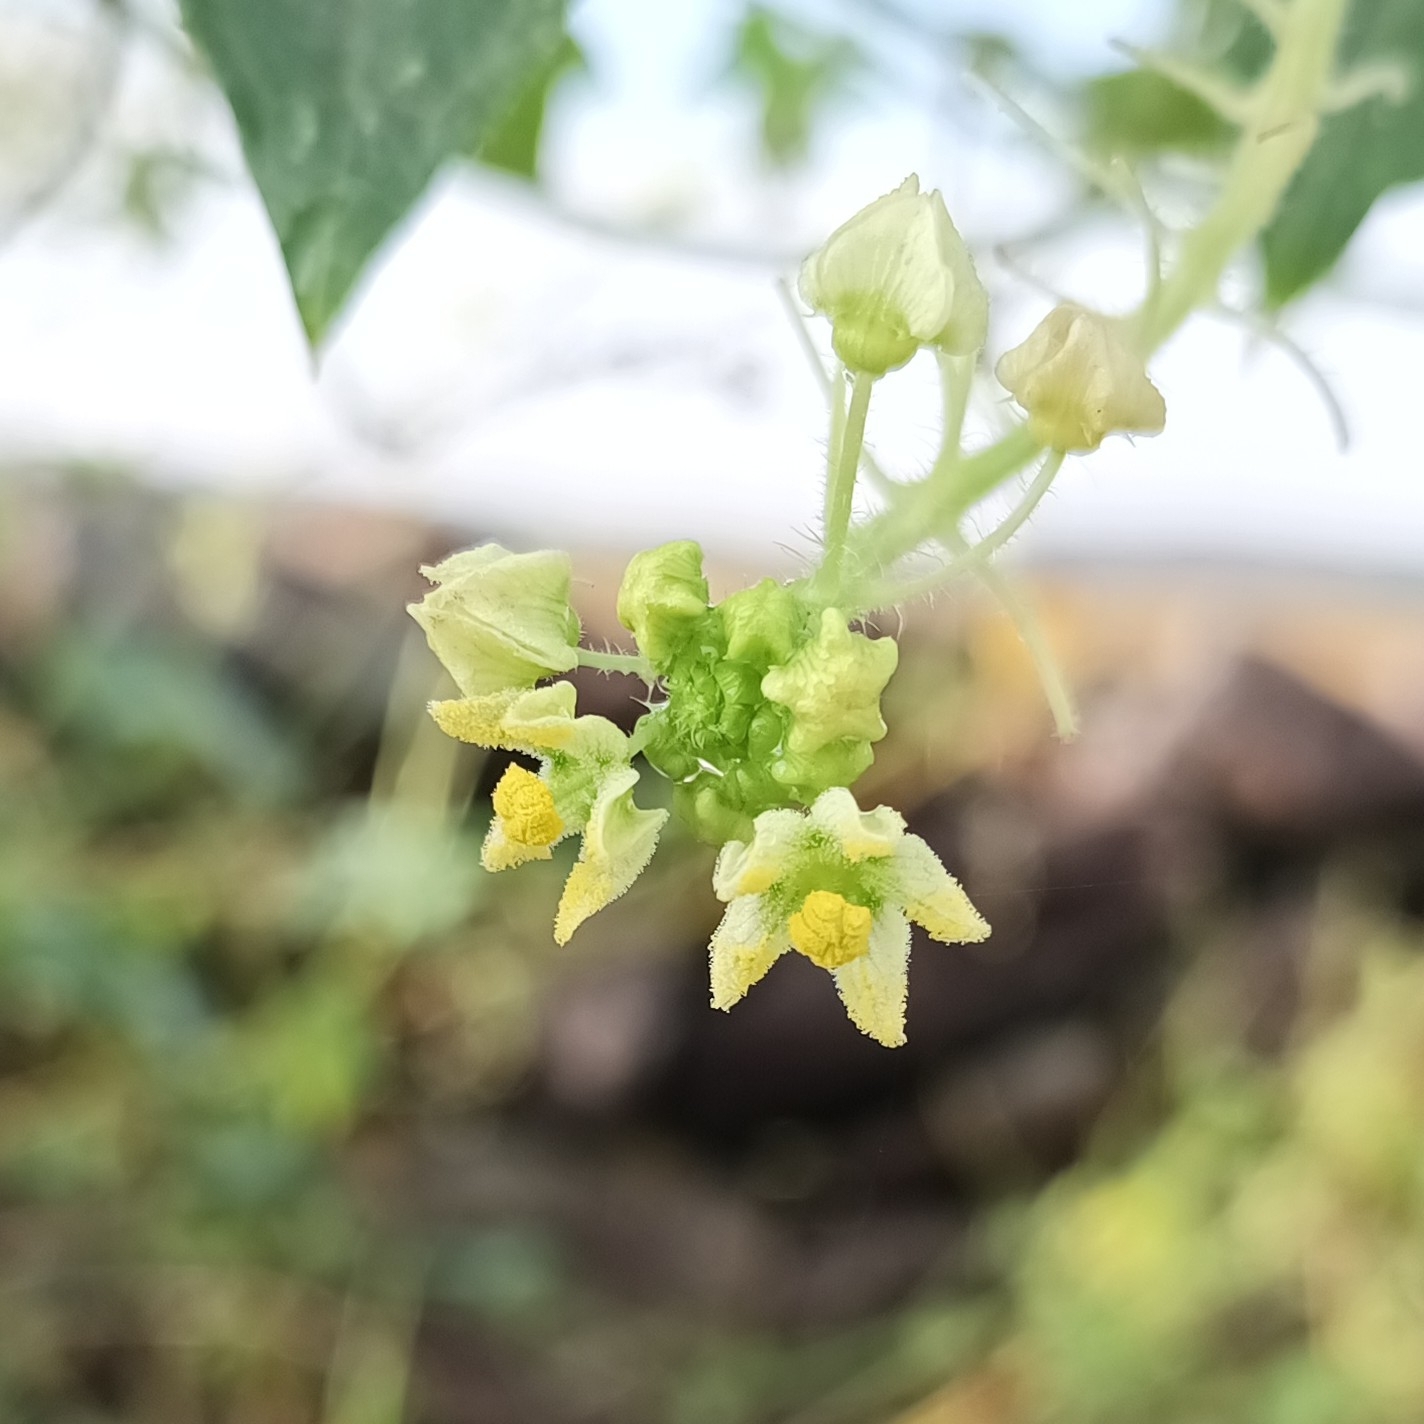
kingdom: Plantae
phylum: Tracheophyta
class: Magnoliopsida
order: Cucurbitales
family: Cucurbitaceae
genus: Sicyos
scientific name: Sicyos microphyllus
